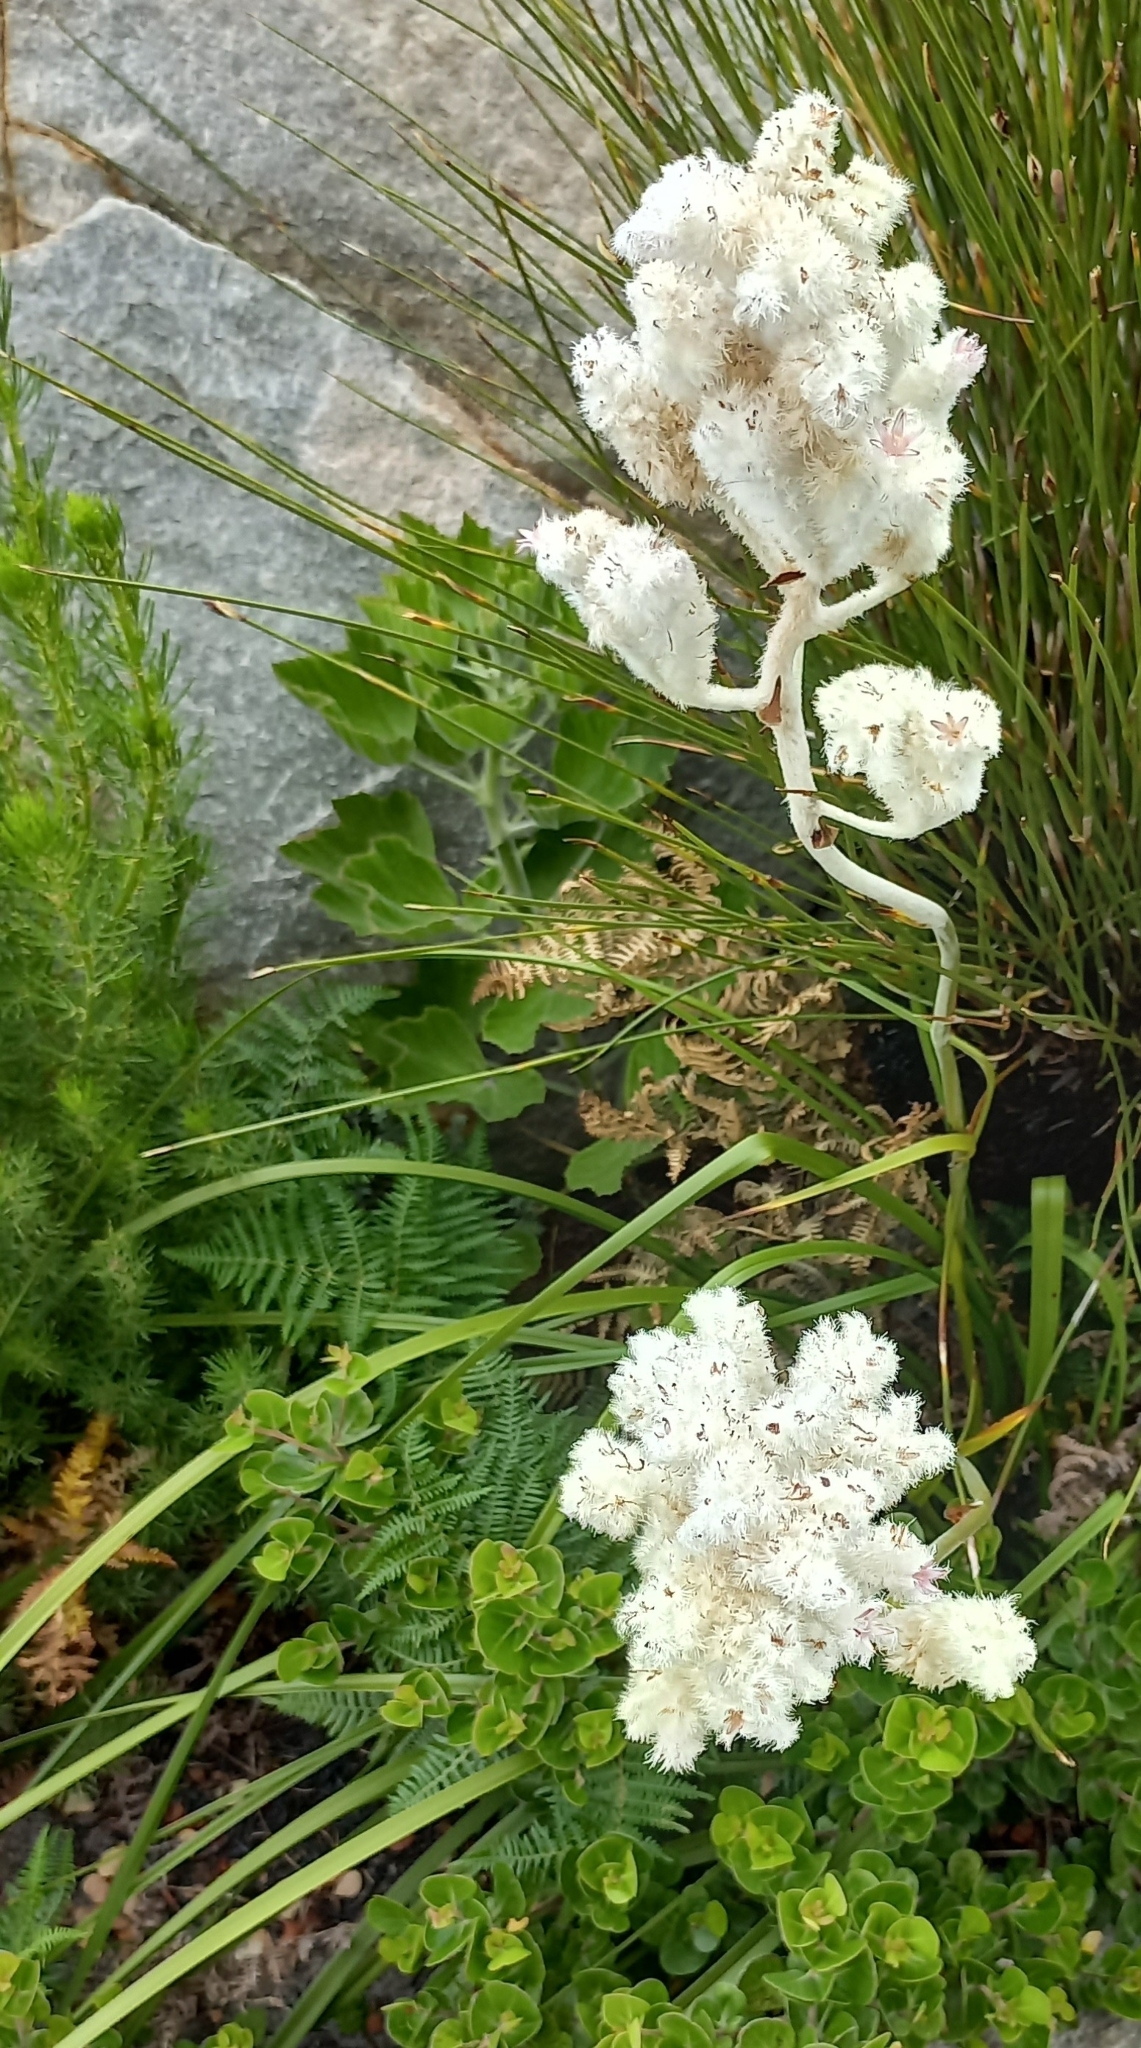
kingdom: Plantae
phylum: Tracheophyta
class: Liliopsida
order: Asparagales
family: Lanariaceae
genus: Lanaria
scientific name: Lanaria lanata
